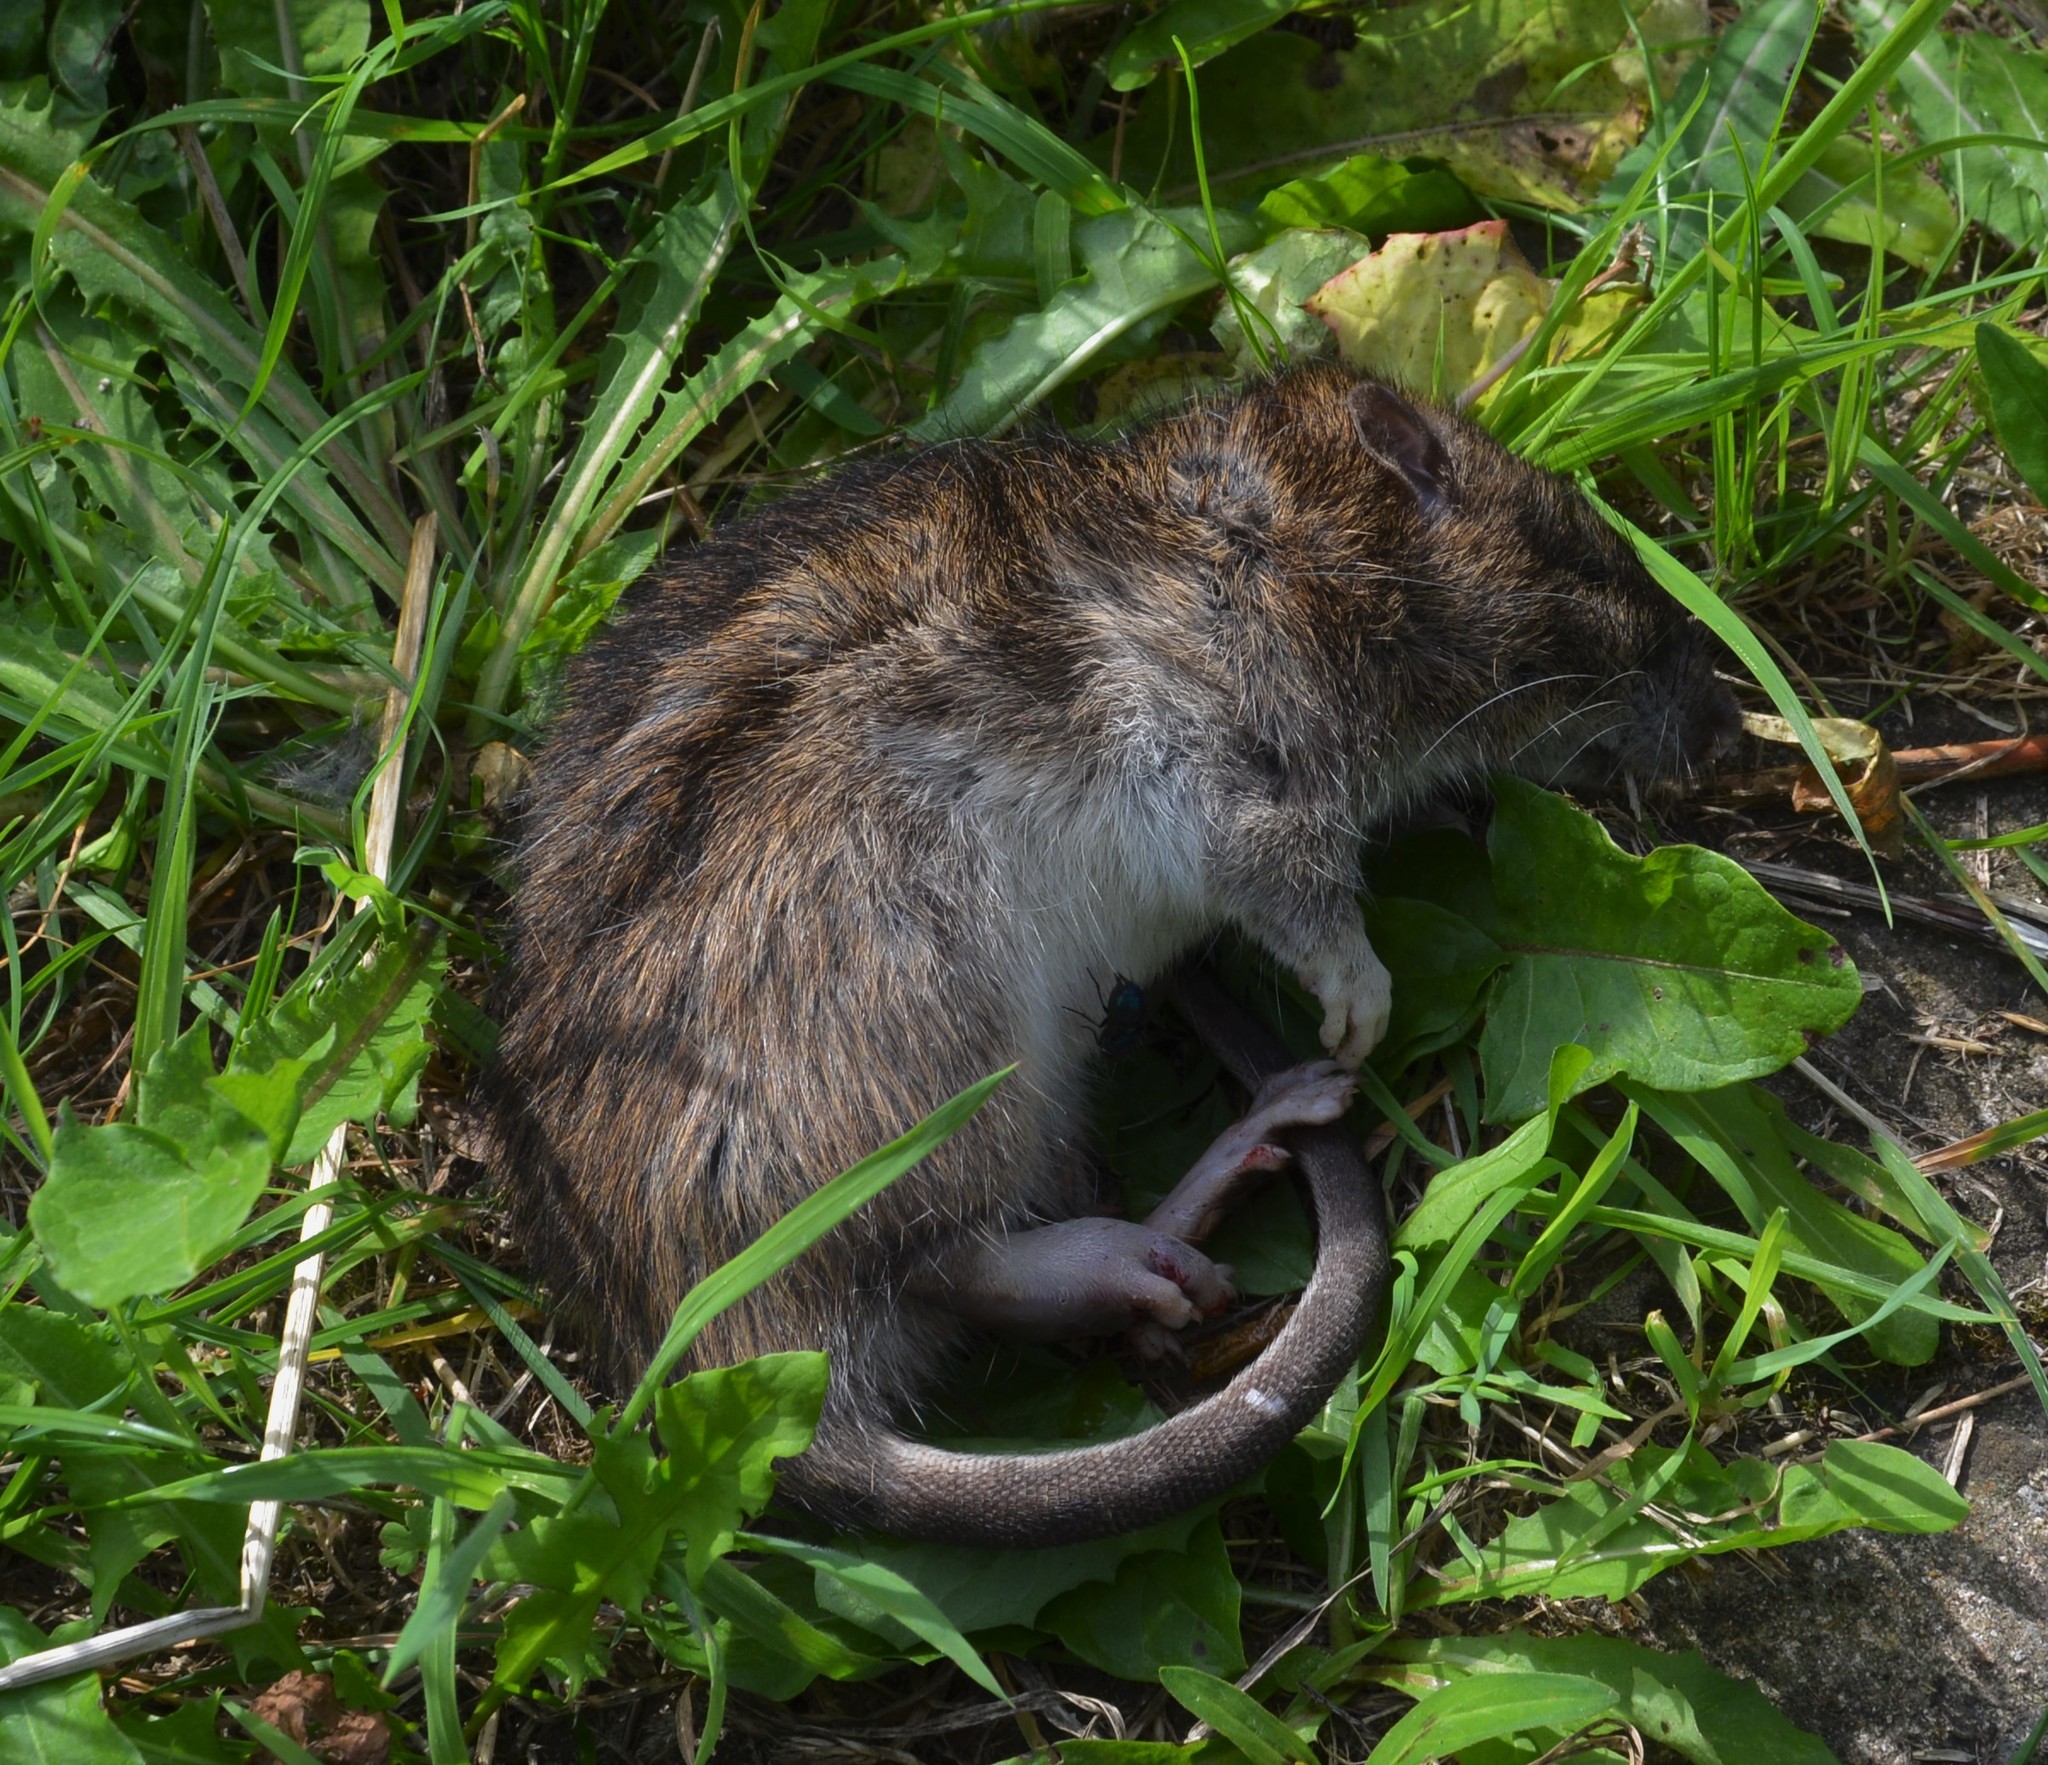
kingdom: Animalia
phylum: Chordata
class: Mammalia
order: Rodentia
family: Muridae
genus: Rattus
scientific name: Rattus norvegicus
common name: Brown rat
